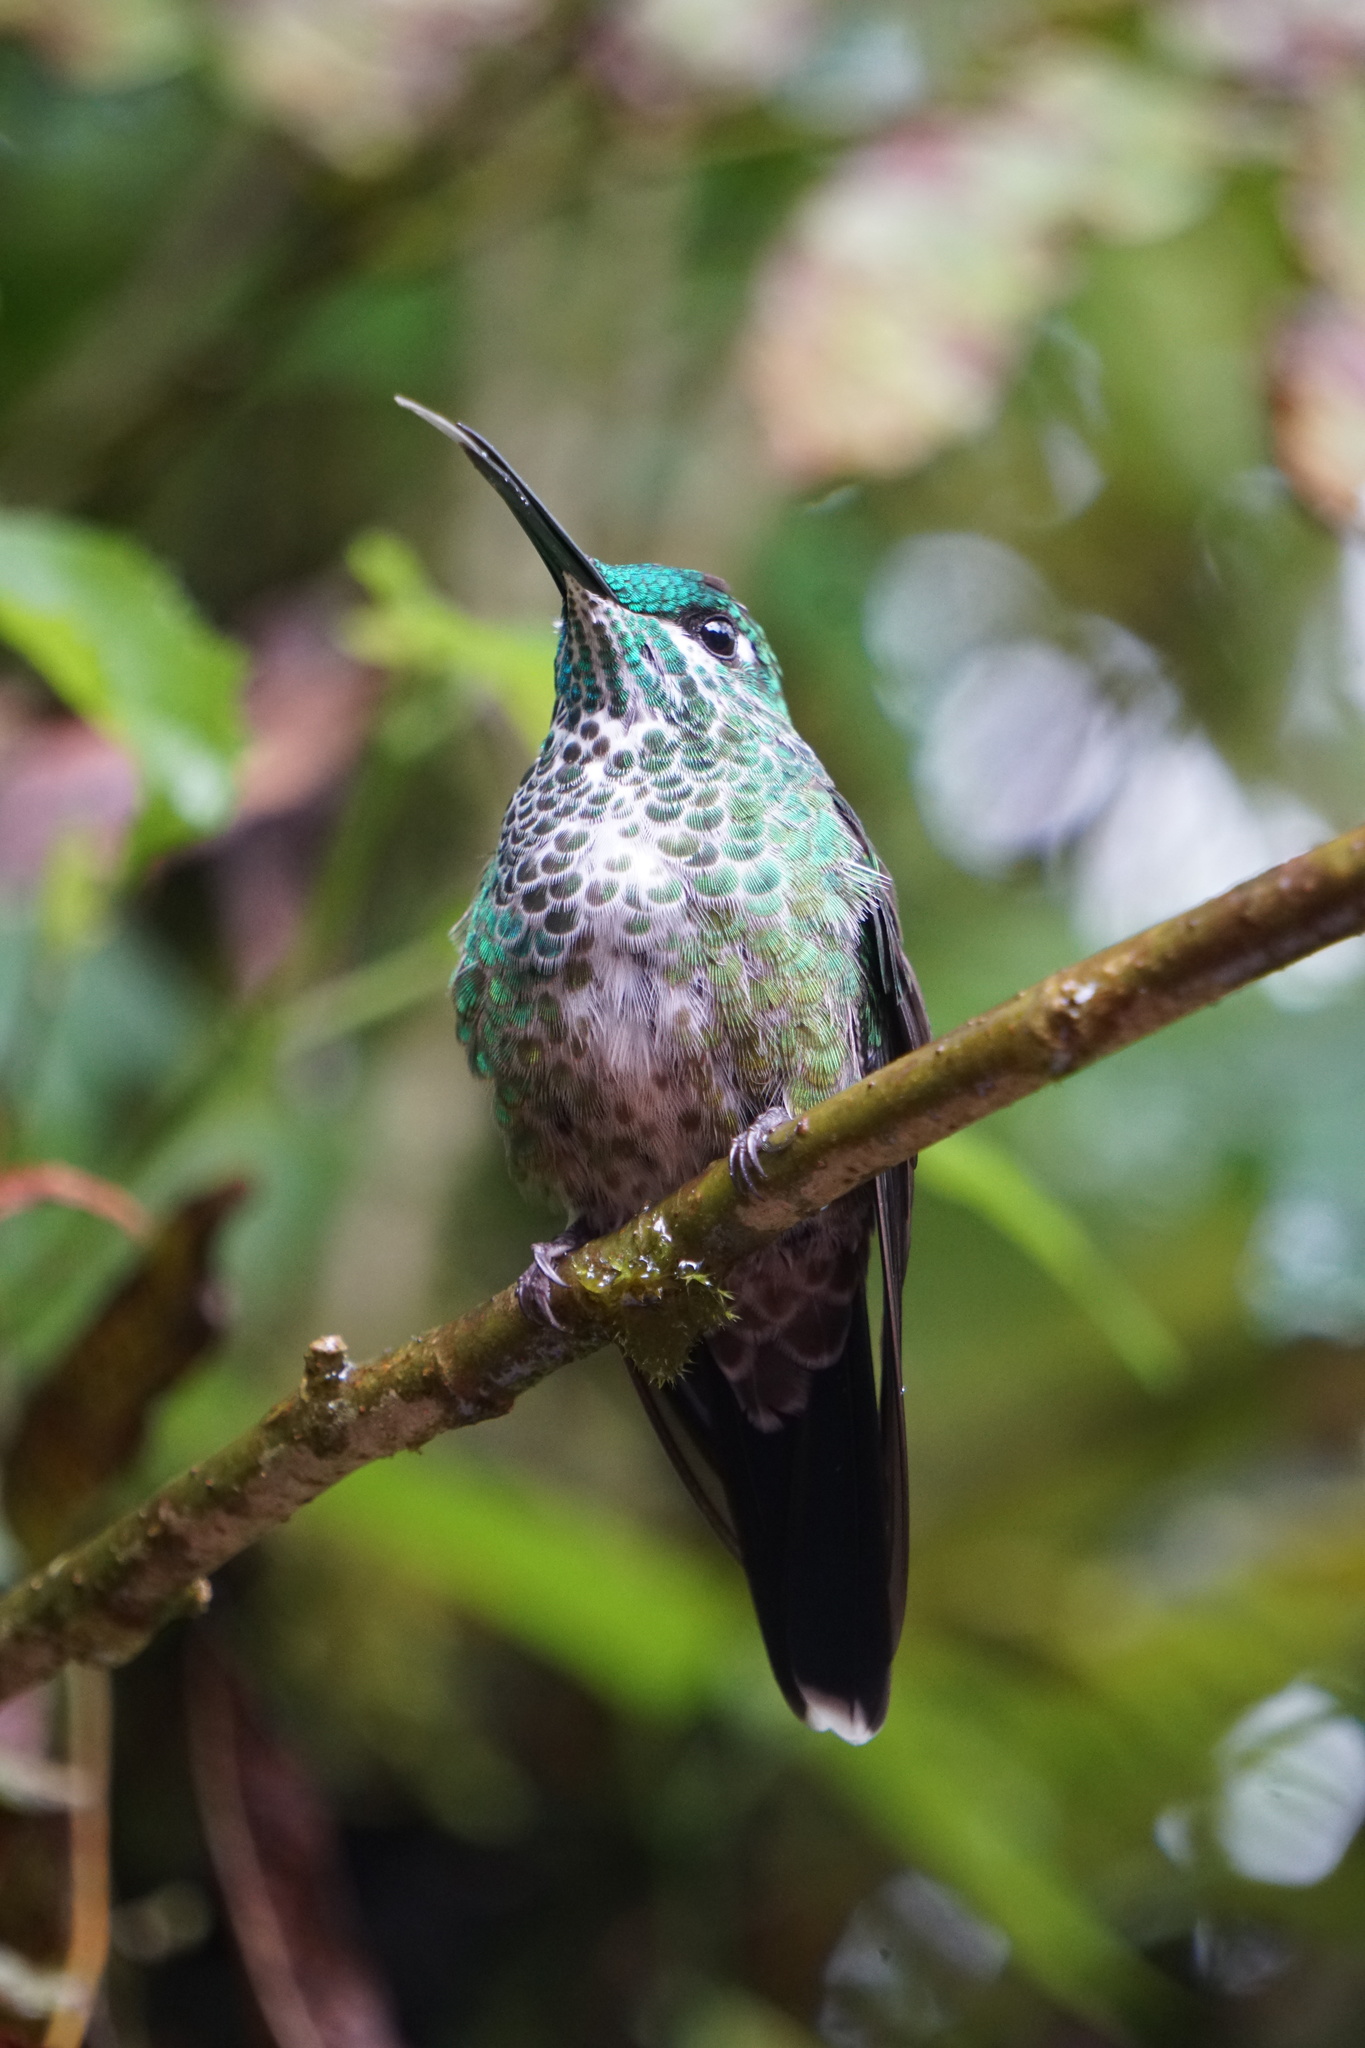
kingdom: Animalia
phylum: Chordata
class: Aves
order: Apodiformes
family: Trochilidae
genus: Heliodoxa
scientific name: Heliodoxa jacula
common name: Green-crowned brilliant
